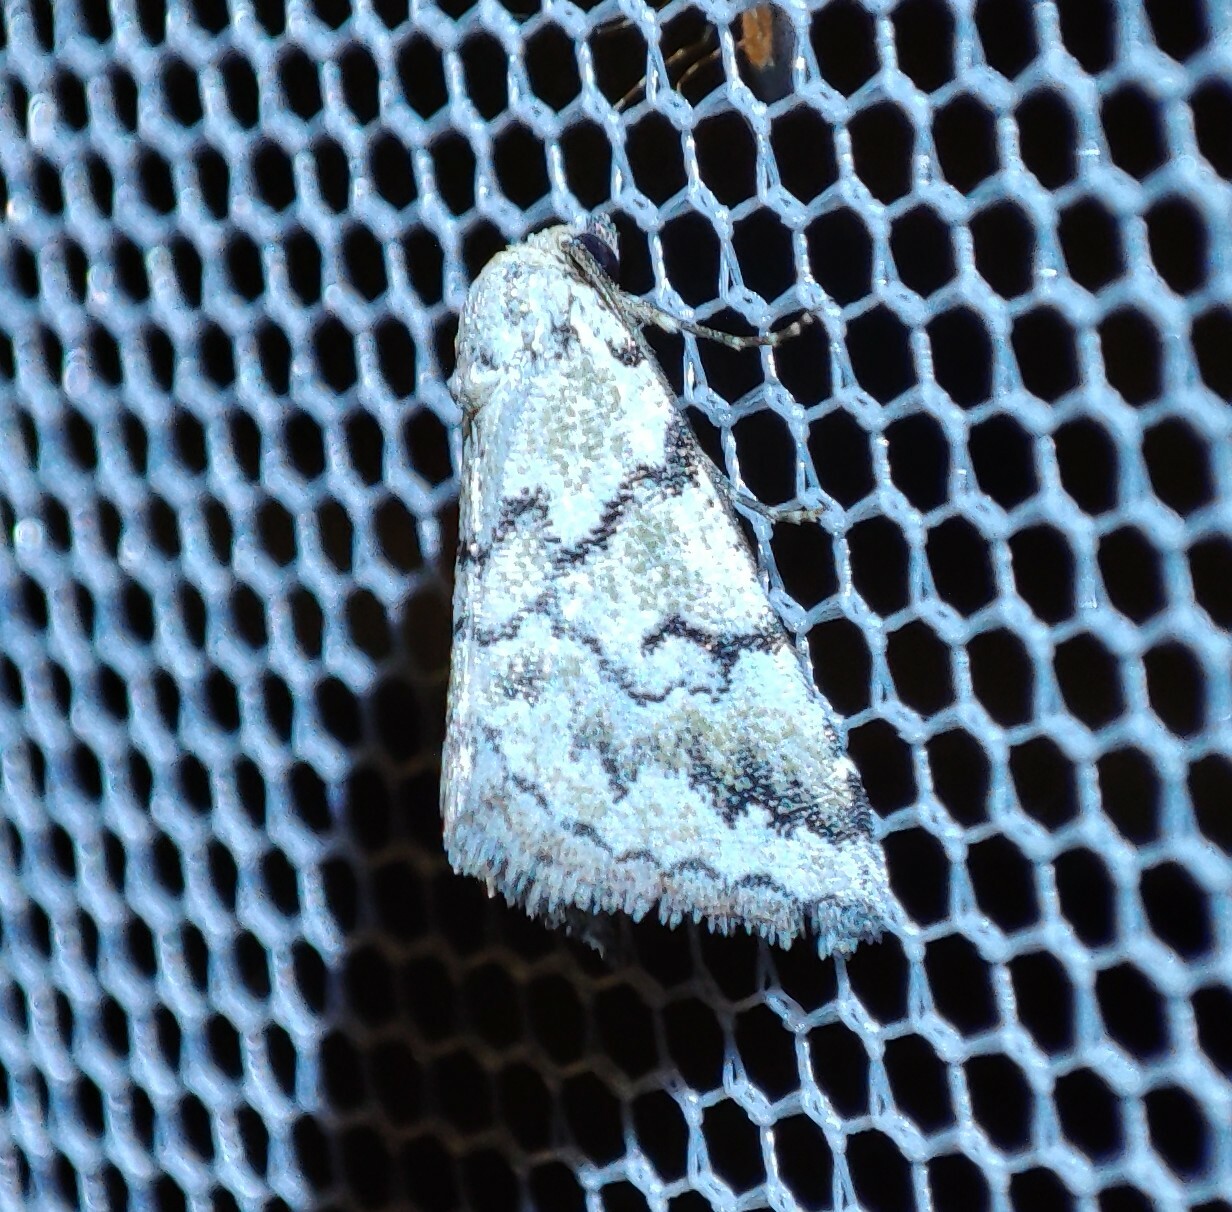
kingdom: Animalia
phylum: Arthropoda
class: Insecta
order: Lepidoptera
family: Noctuidae
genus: Cerynea
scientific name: Cerynea virescens
